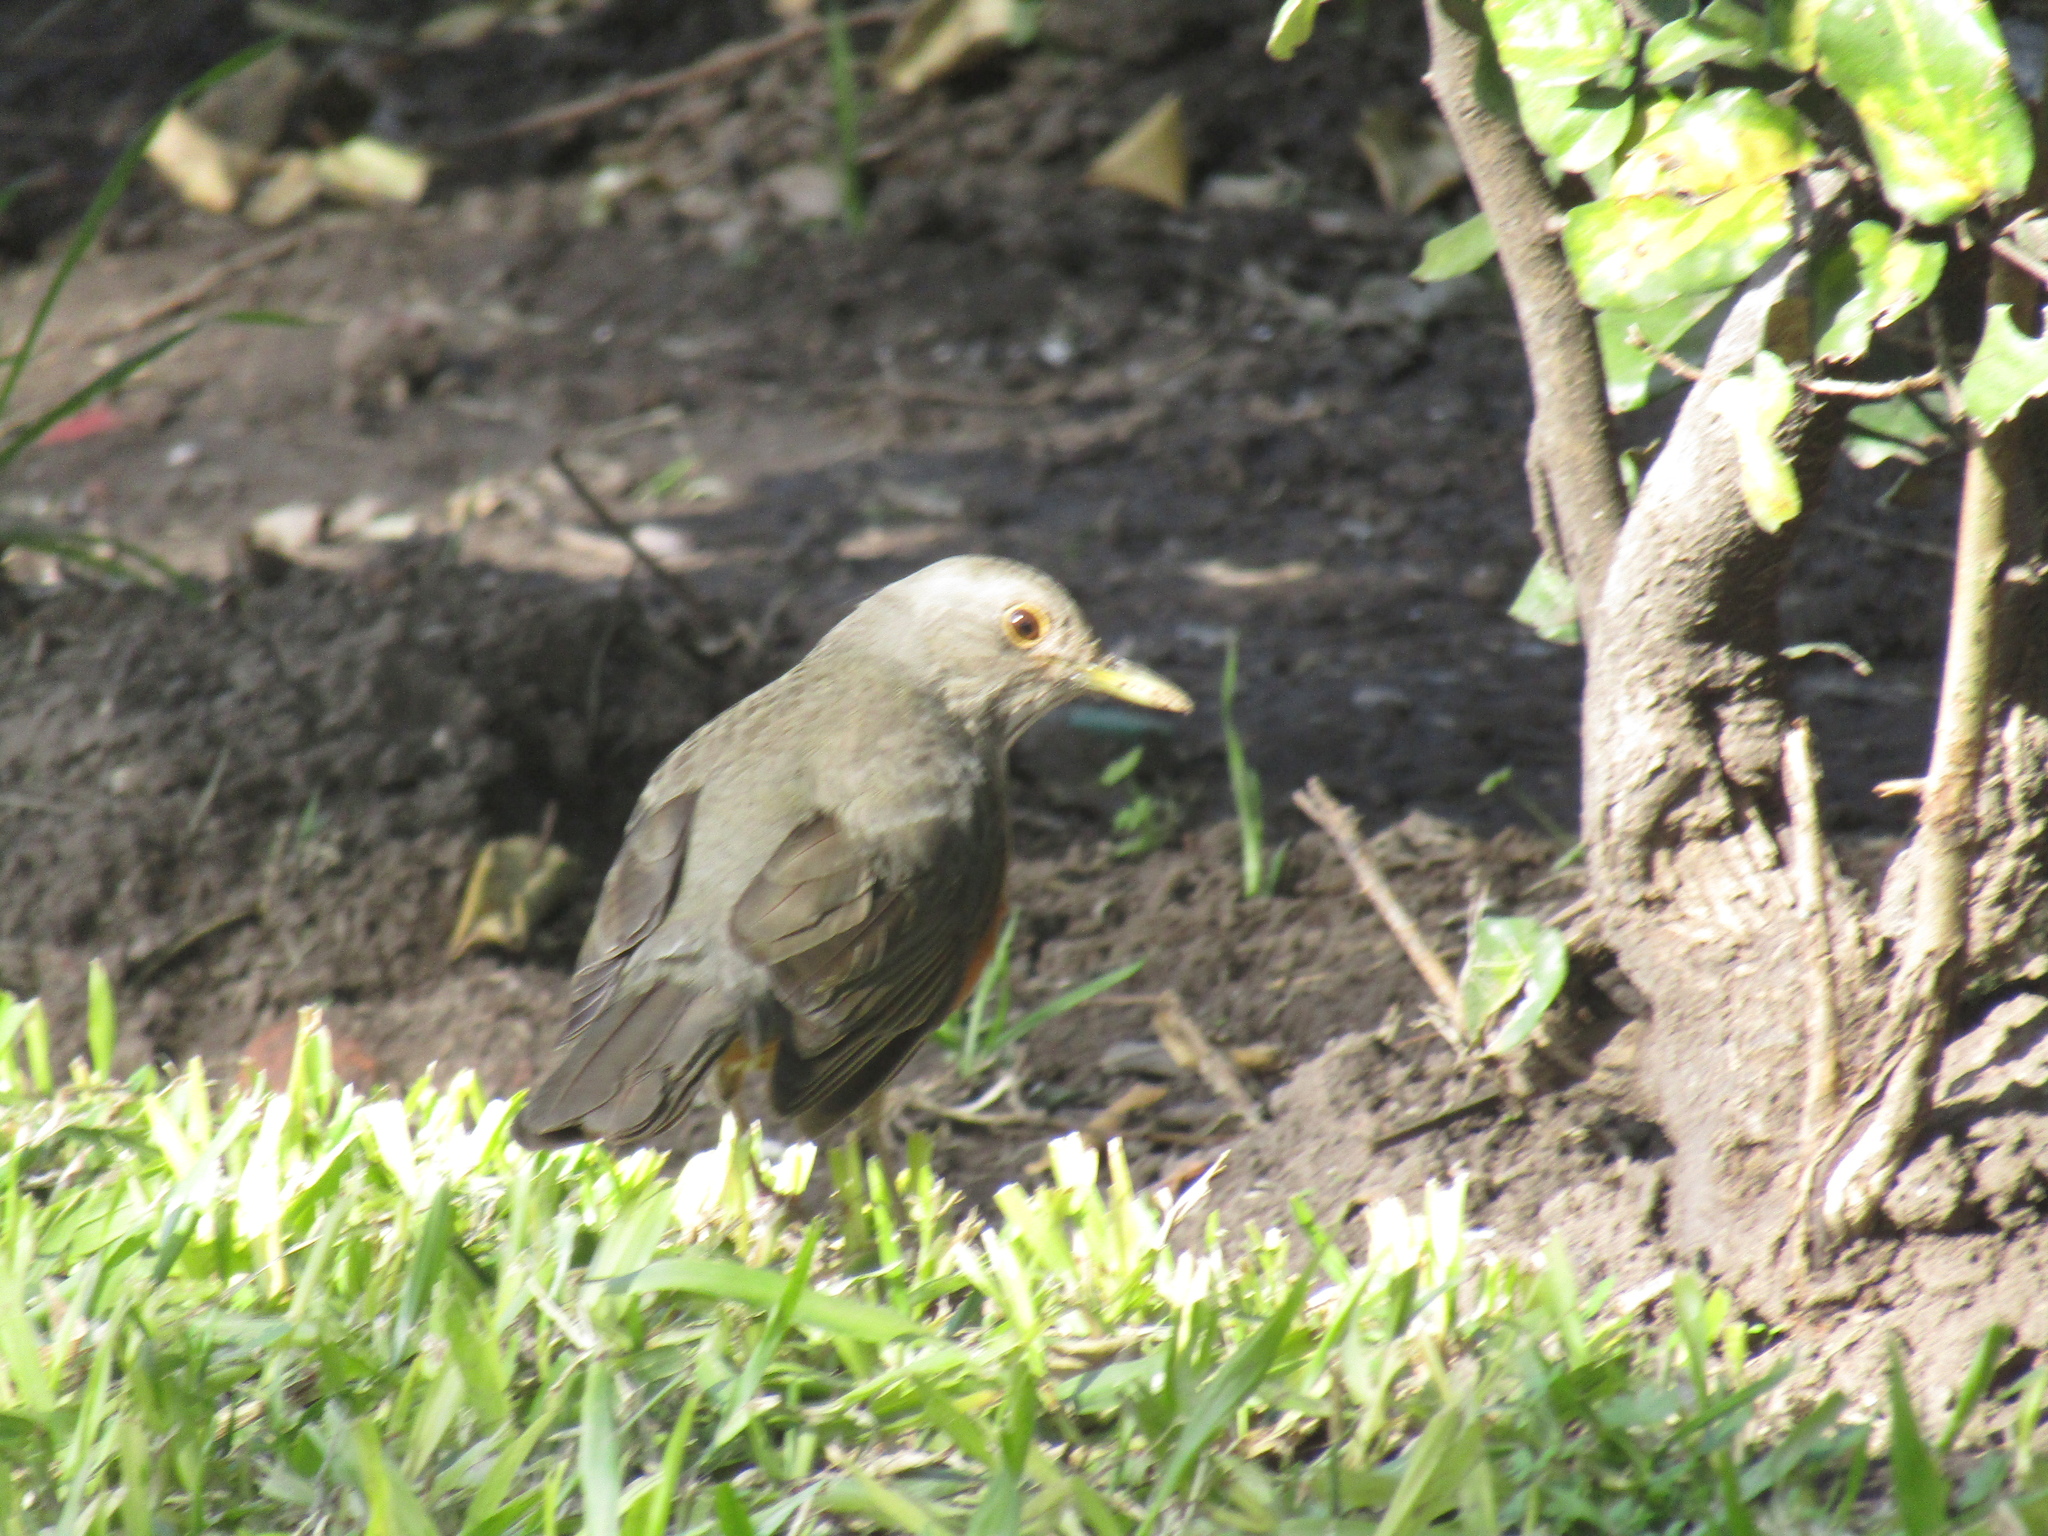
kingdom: Animalia
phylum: Chordata
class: Aves
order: Passeriformes
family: Turdidae
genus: Turdus
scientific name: Turdus rufiventris
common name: Rufous-bellied thrush
